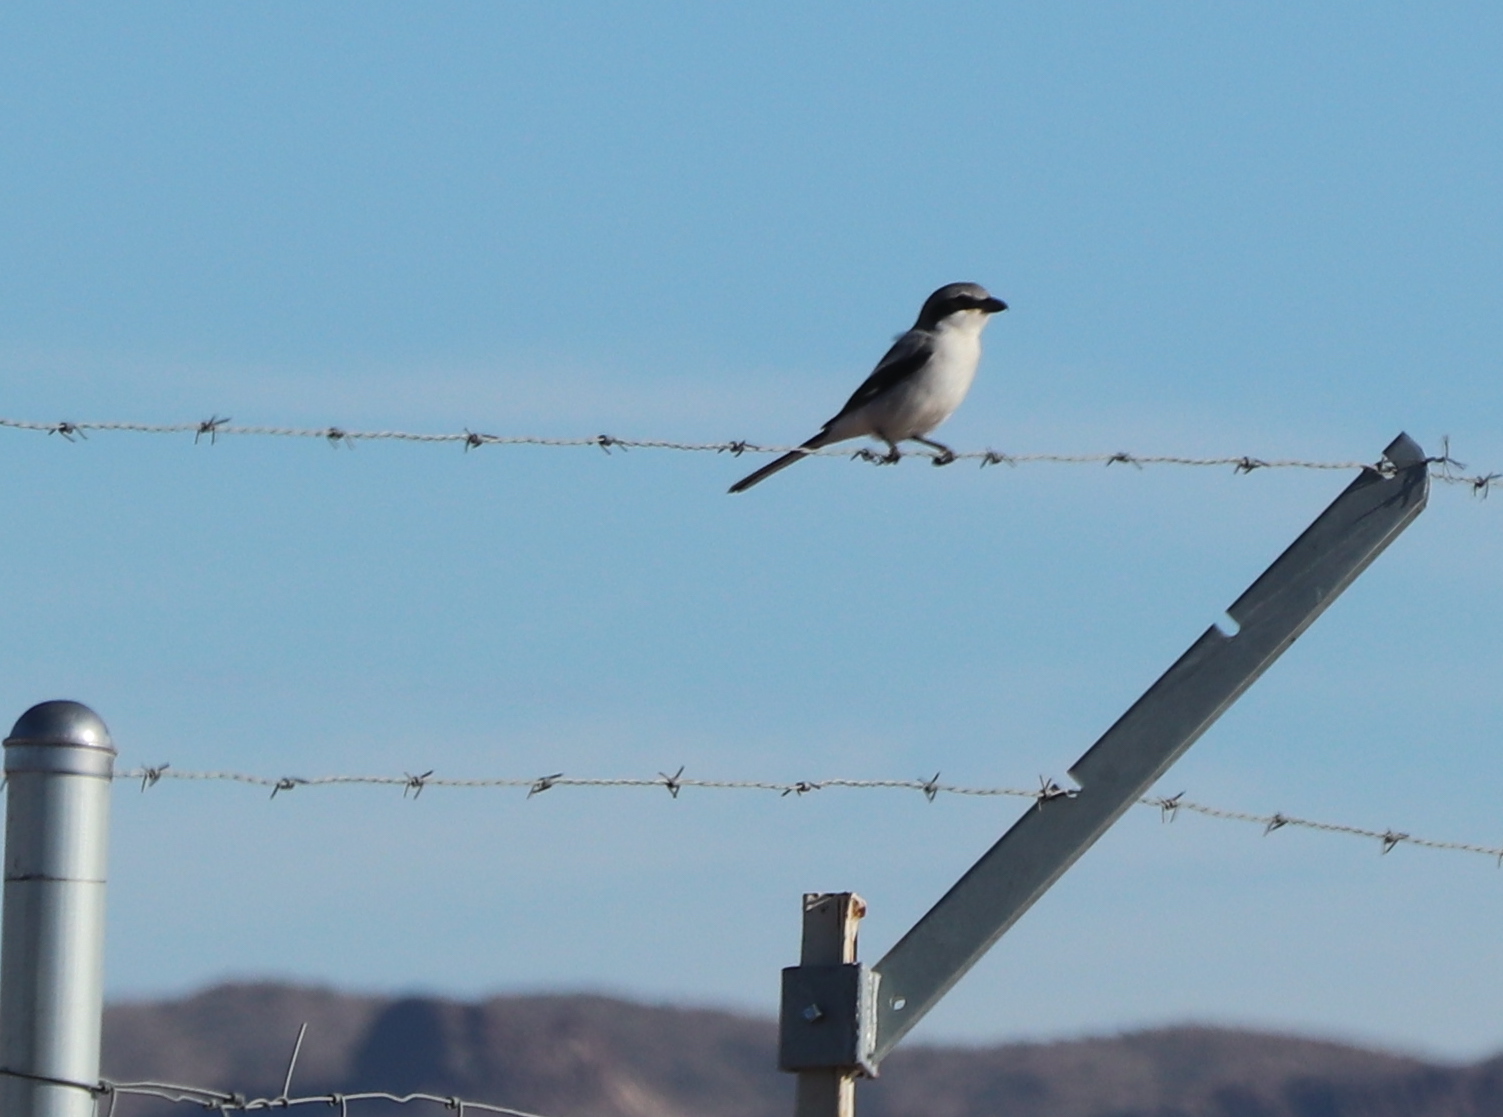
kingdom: Animalia
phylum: Chordata
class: Aves
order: Passeriformes
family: Laniidae
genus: Lanius
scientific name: Lanius ludovicianus
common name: Loggerhead shrike
